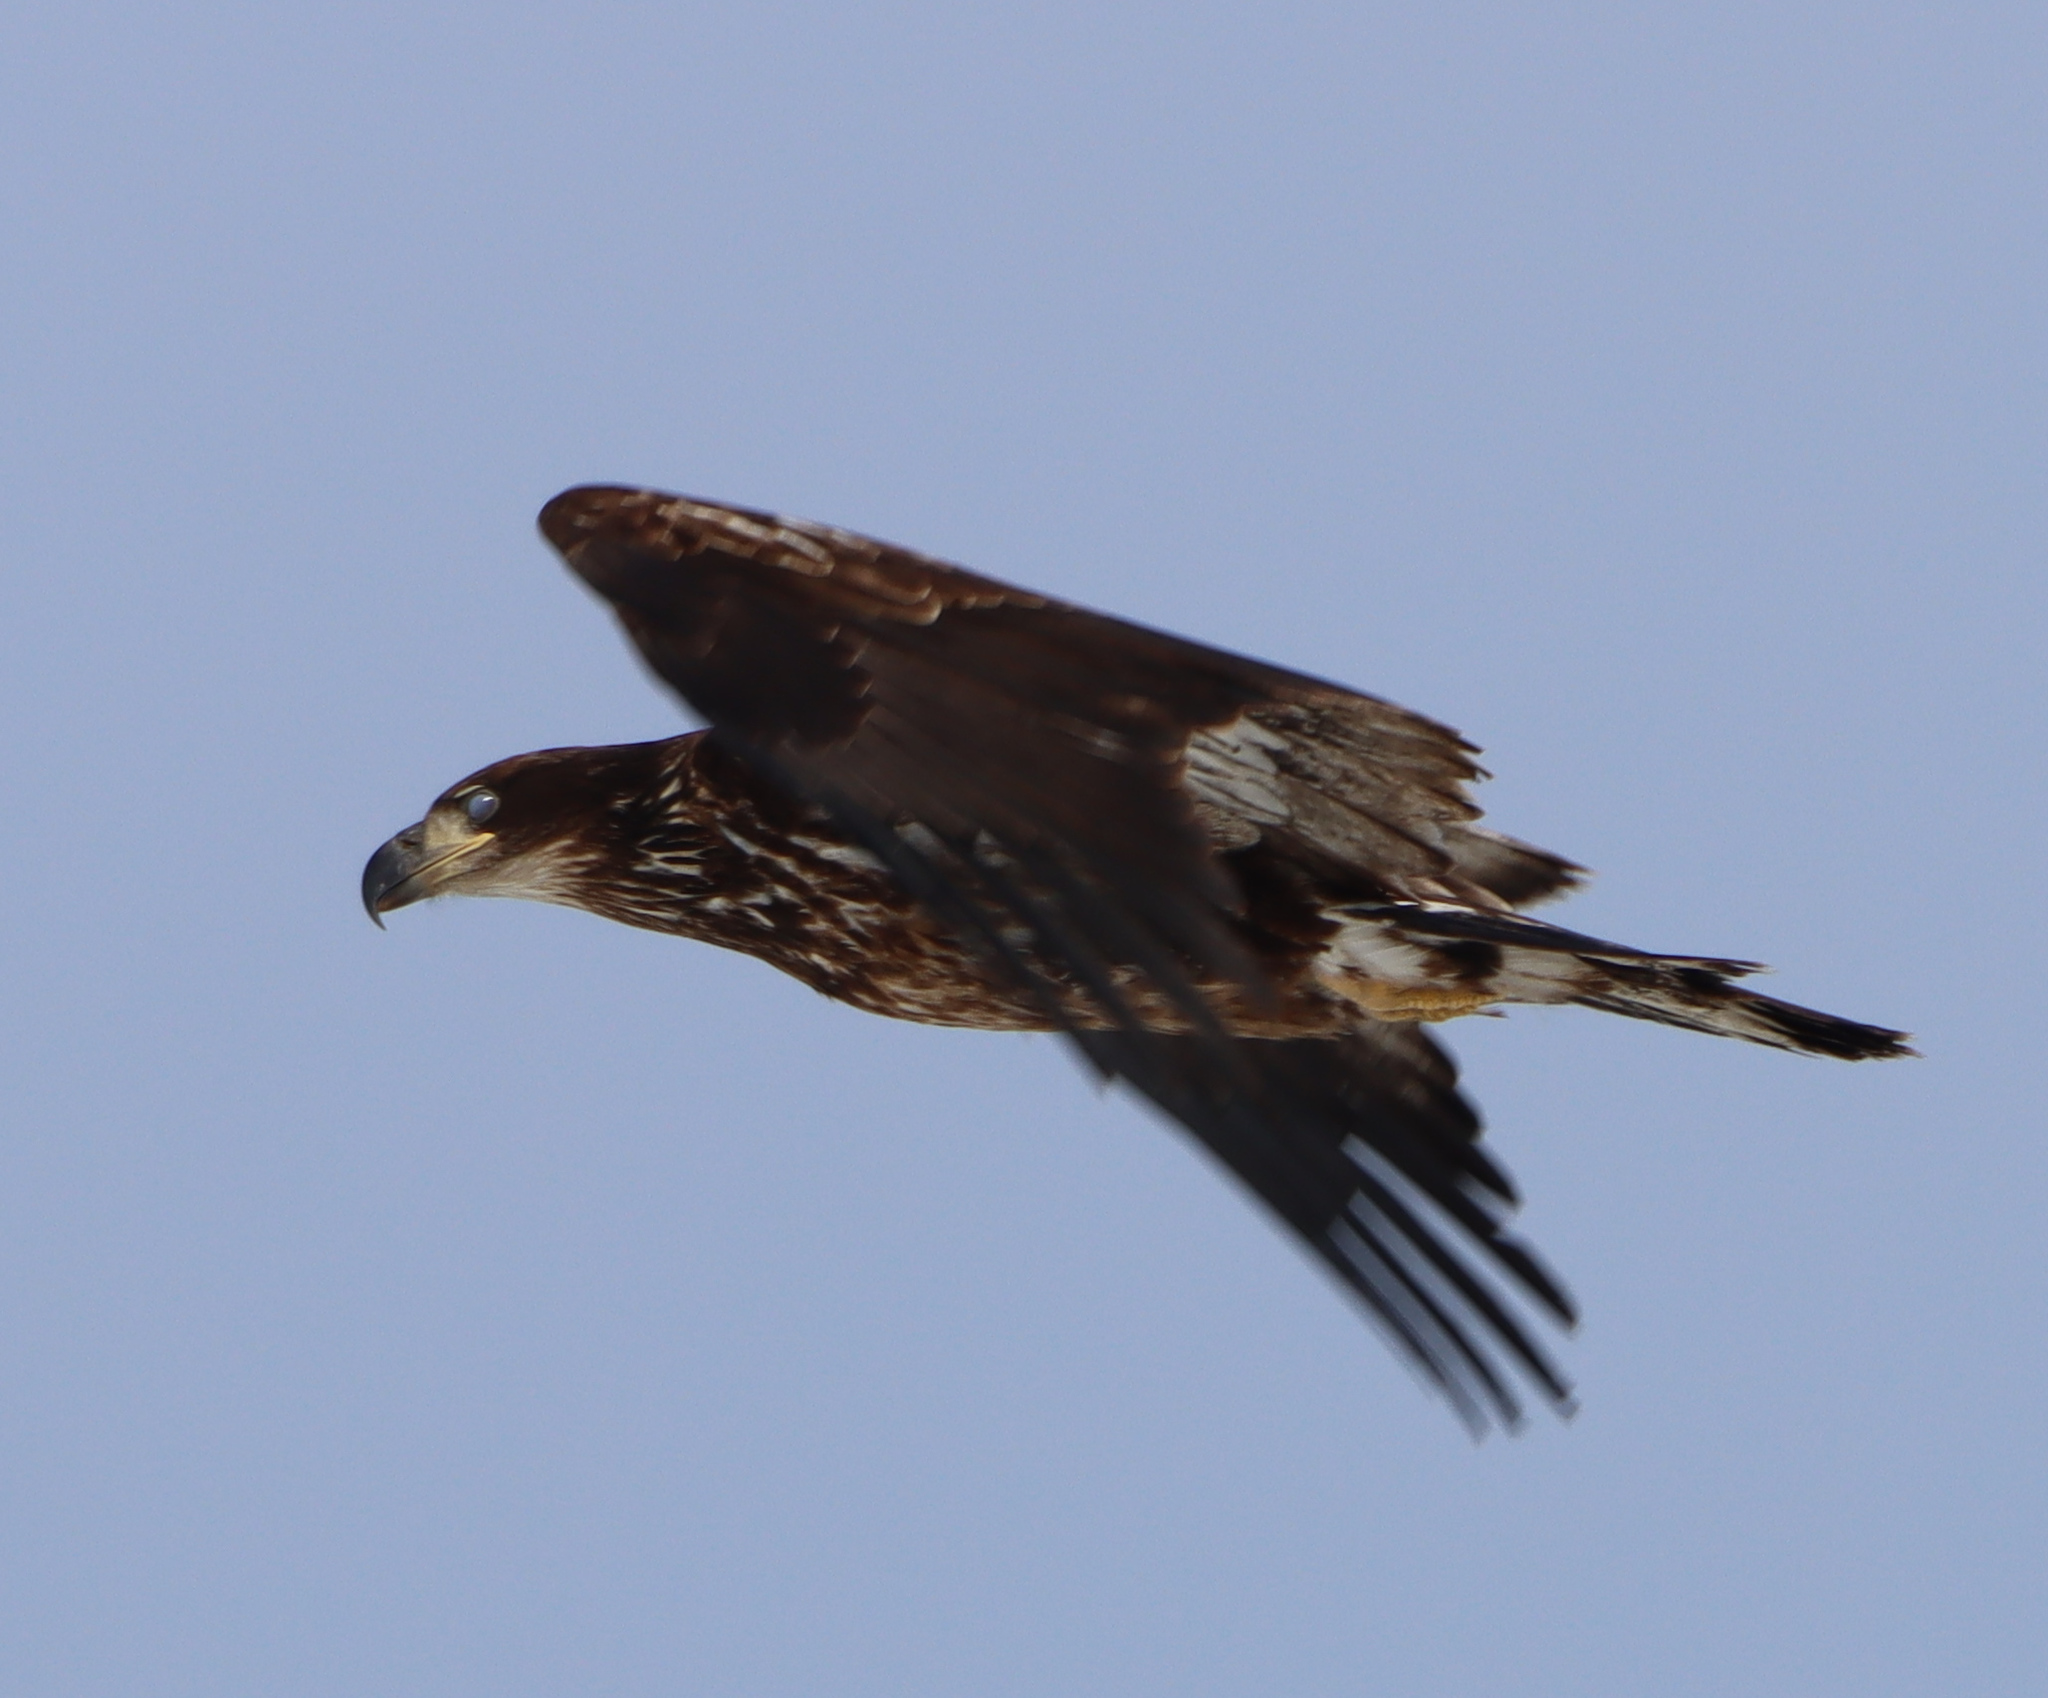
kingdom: Animalia
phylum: Chordata
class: Aves
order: Accipitriformes
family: Accipitridae
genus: Haliaeetus
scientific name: Haliaeetus leucocephalus
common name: Bald eagle
